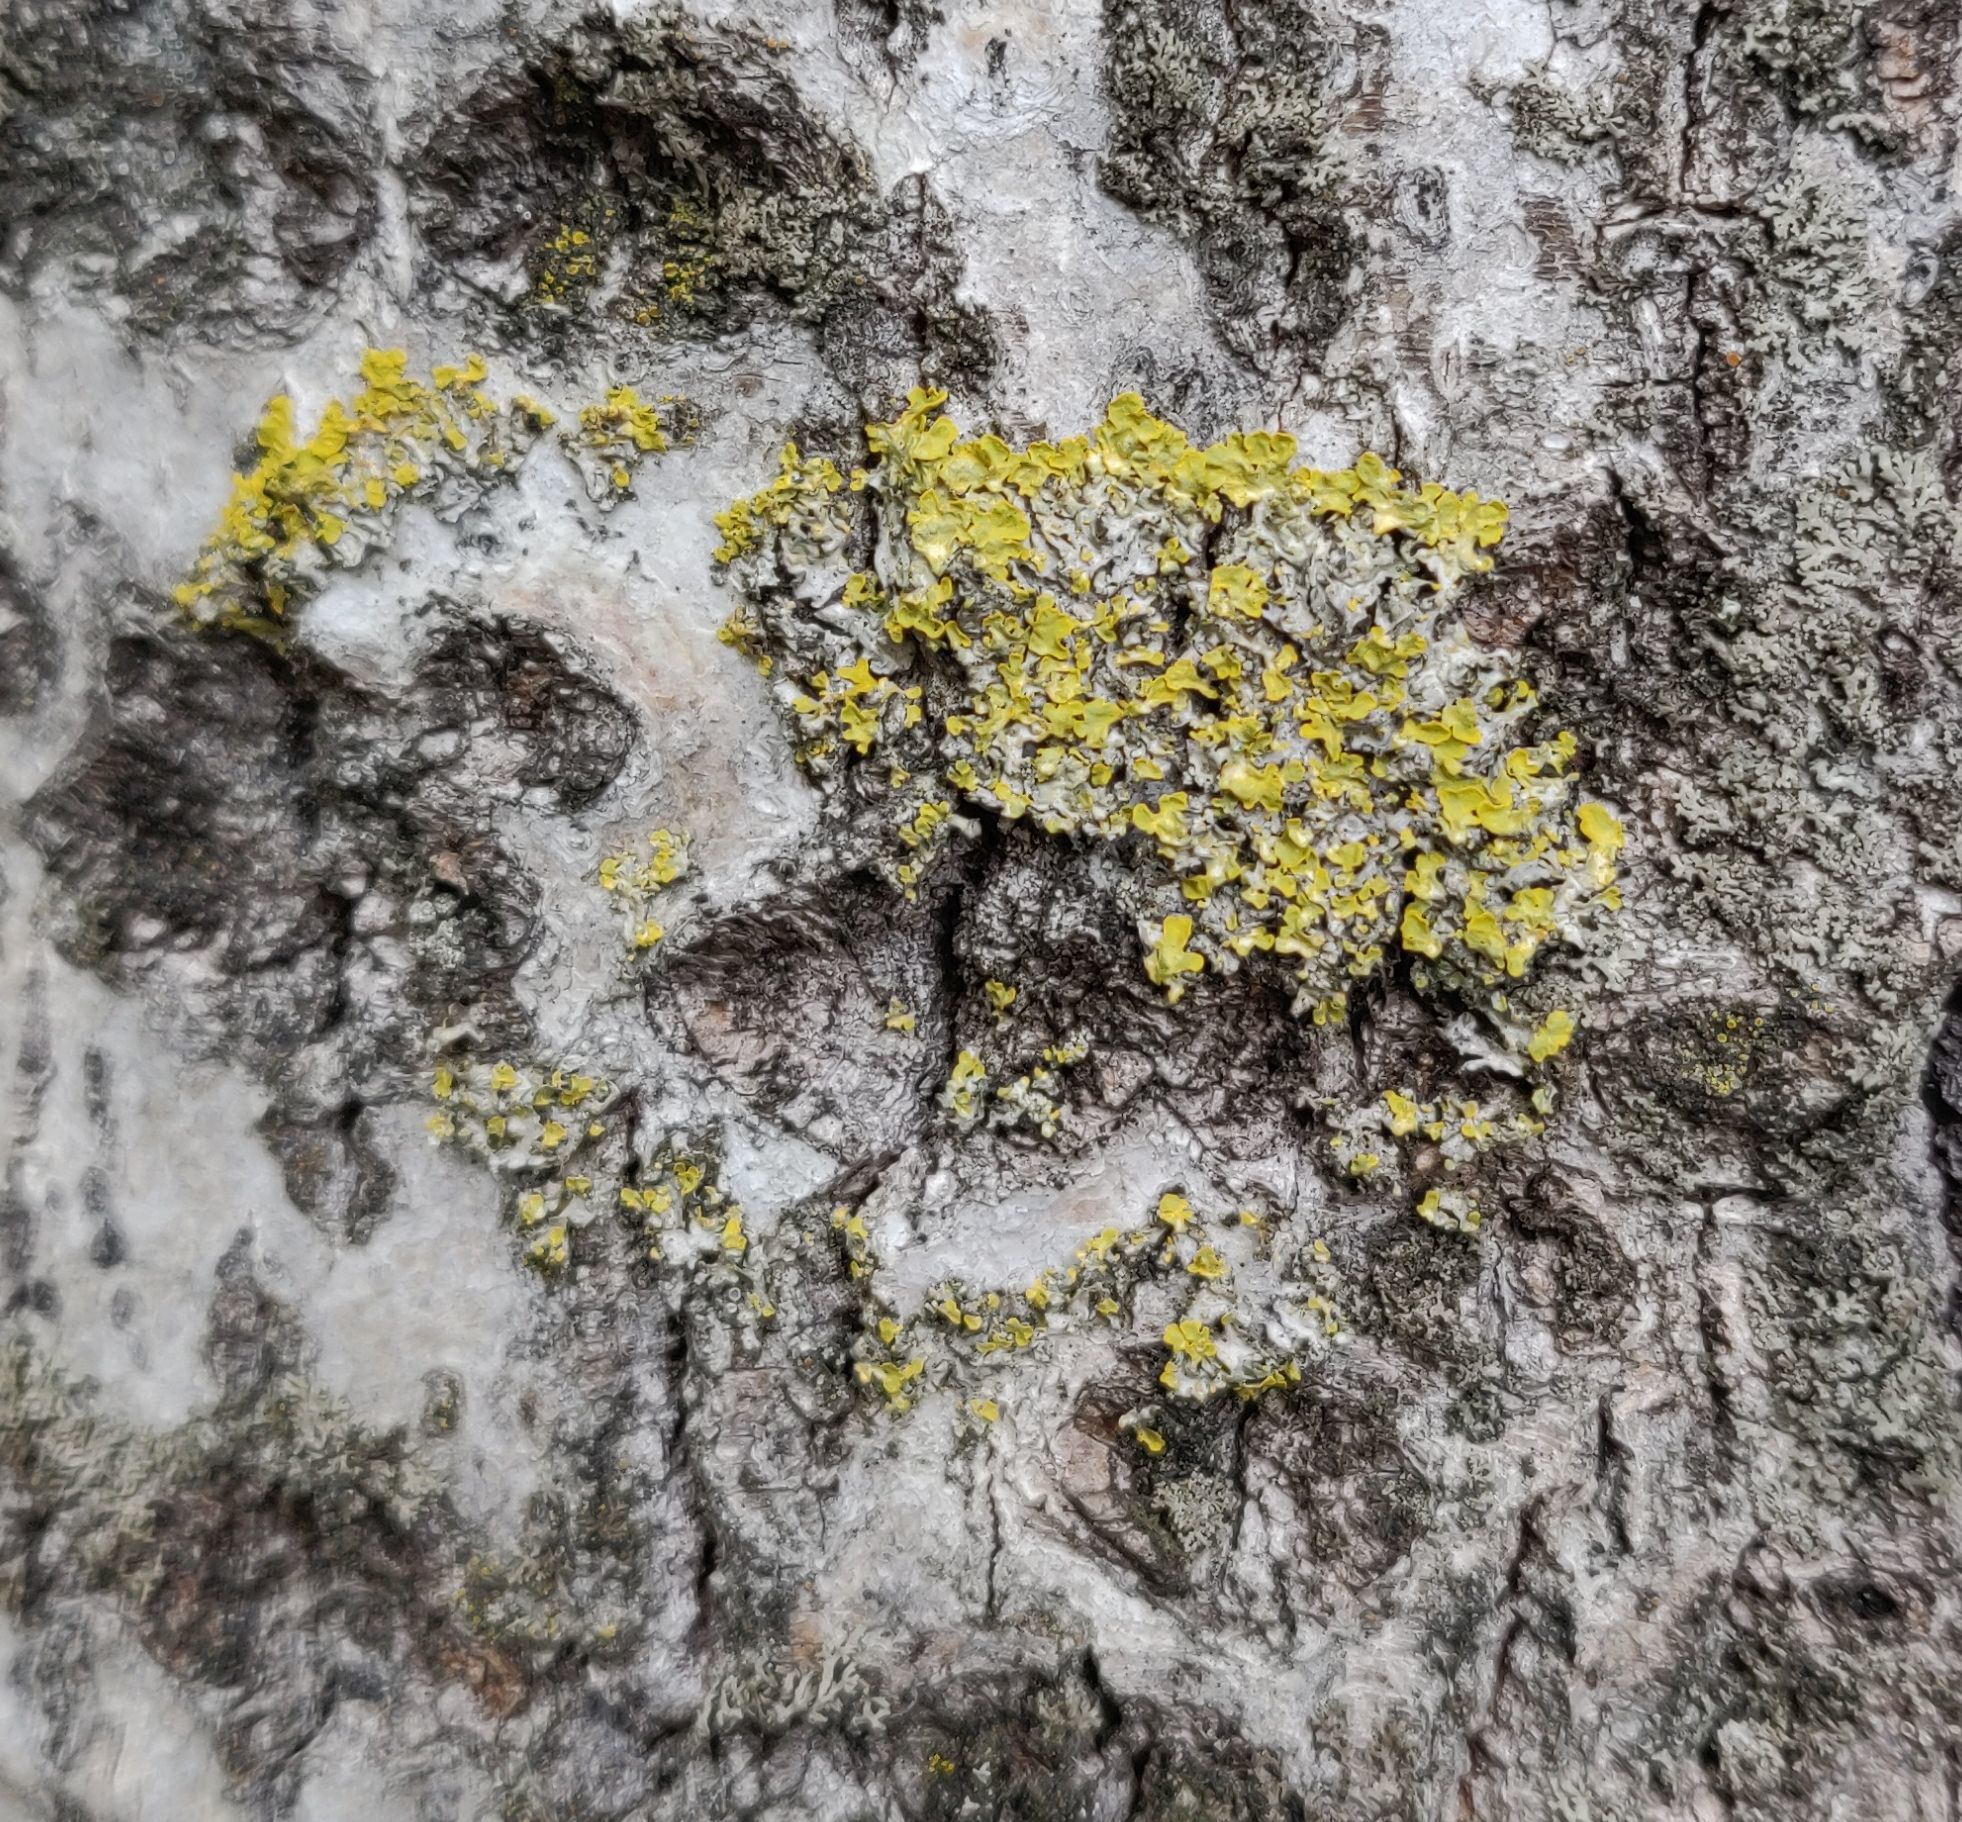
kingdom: Fungi
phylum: Ascomycota
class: Lecanoromycetes
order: Teloschistales
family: Teloschistaceae
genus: Xanthoria
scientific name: Xanthoria parietina
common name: Common orange lichen
